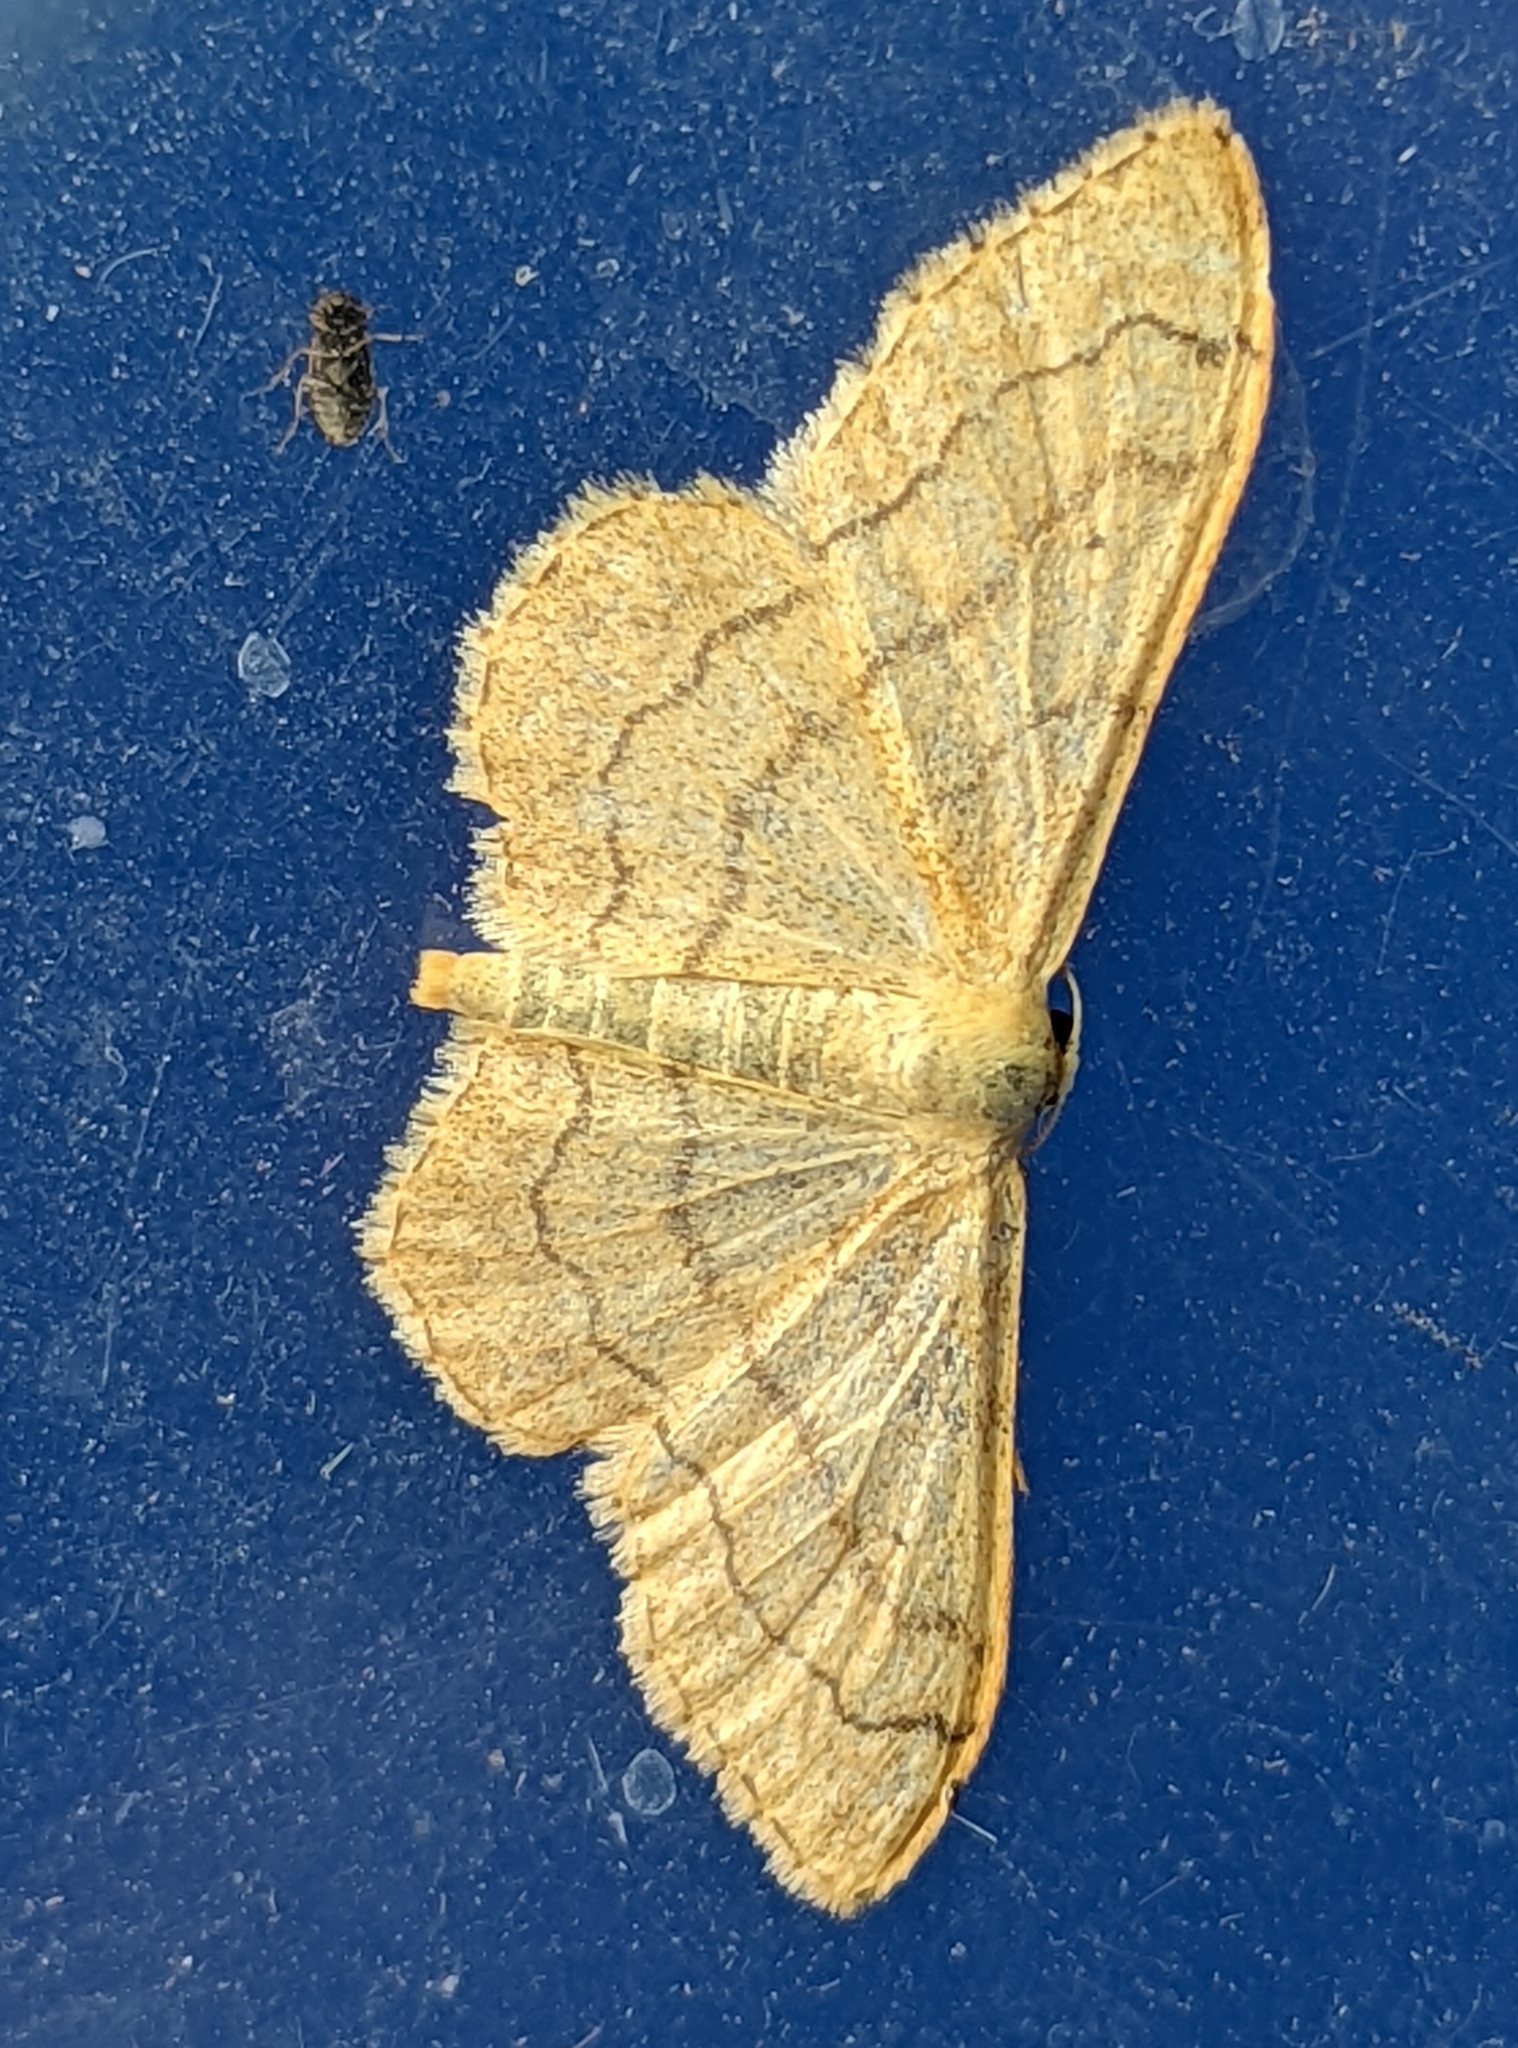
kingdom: Animalia
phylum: Arthropoda
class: Insecta
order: Lepidoptera
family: Geometridae
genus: Idaea
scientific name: Idaea aversata
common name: Riband wave
